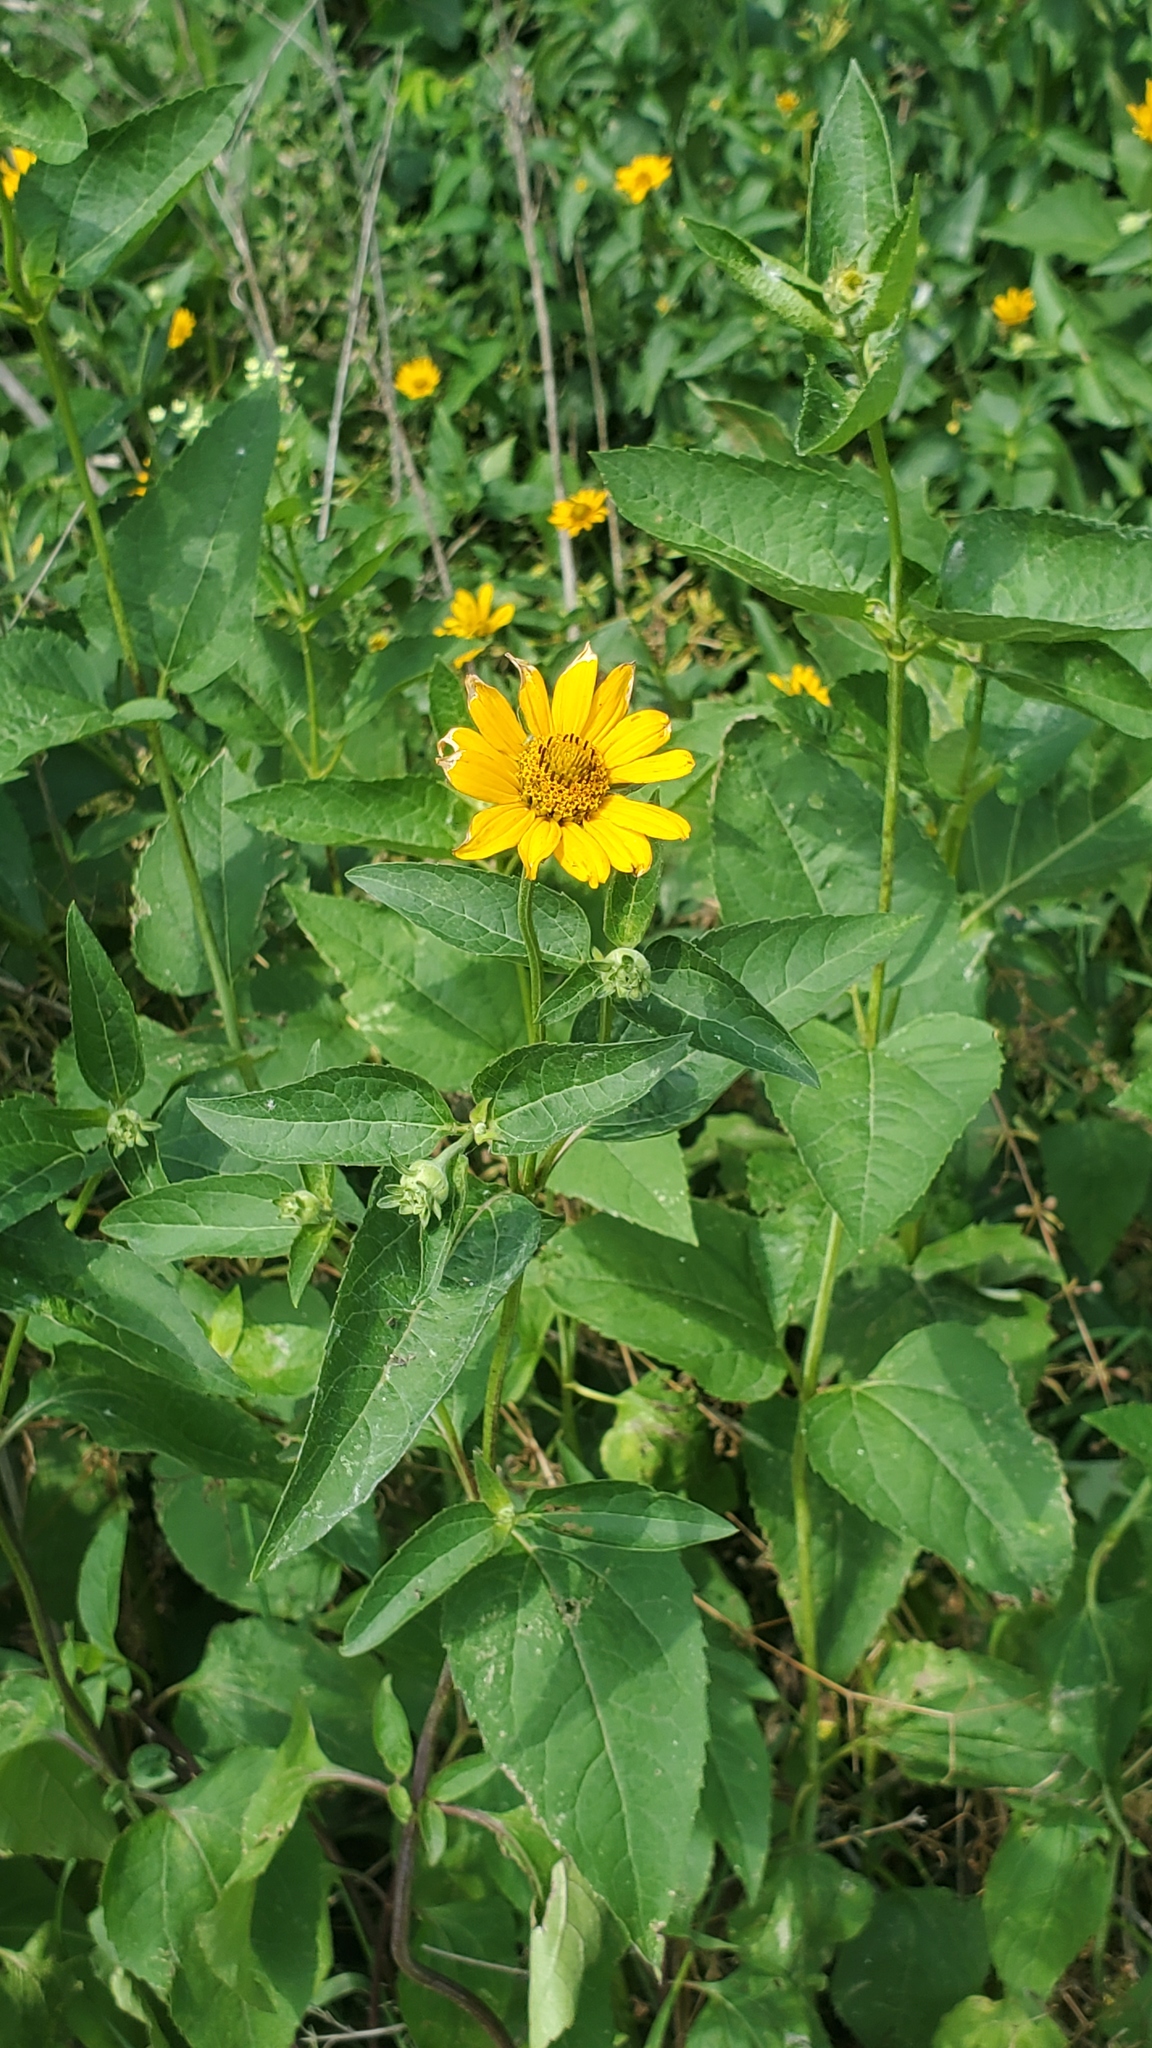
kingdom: Plantae
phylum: Tracheophyta
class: Magnoliopsida
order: Asterales
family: Asteraceae
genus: Heliopsis
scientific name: Heliopsis helianthoides
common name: False sunflower
